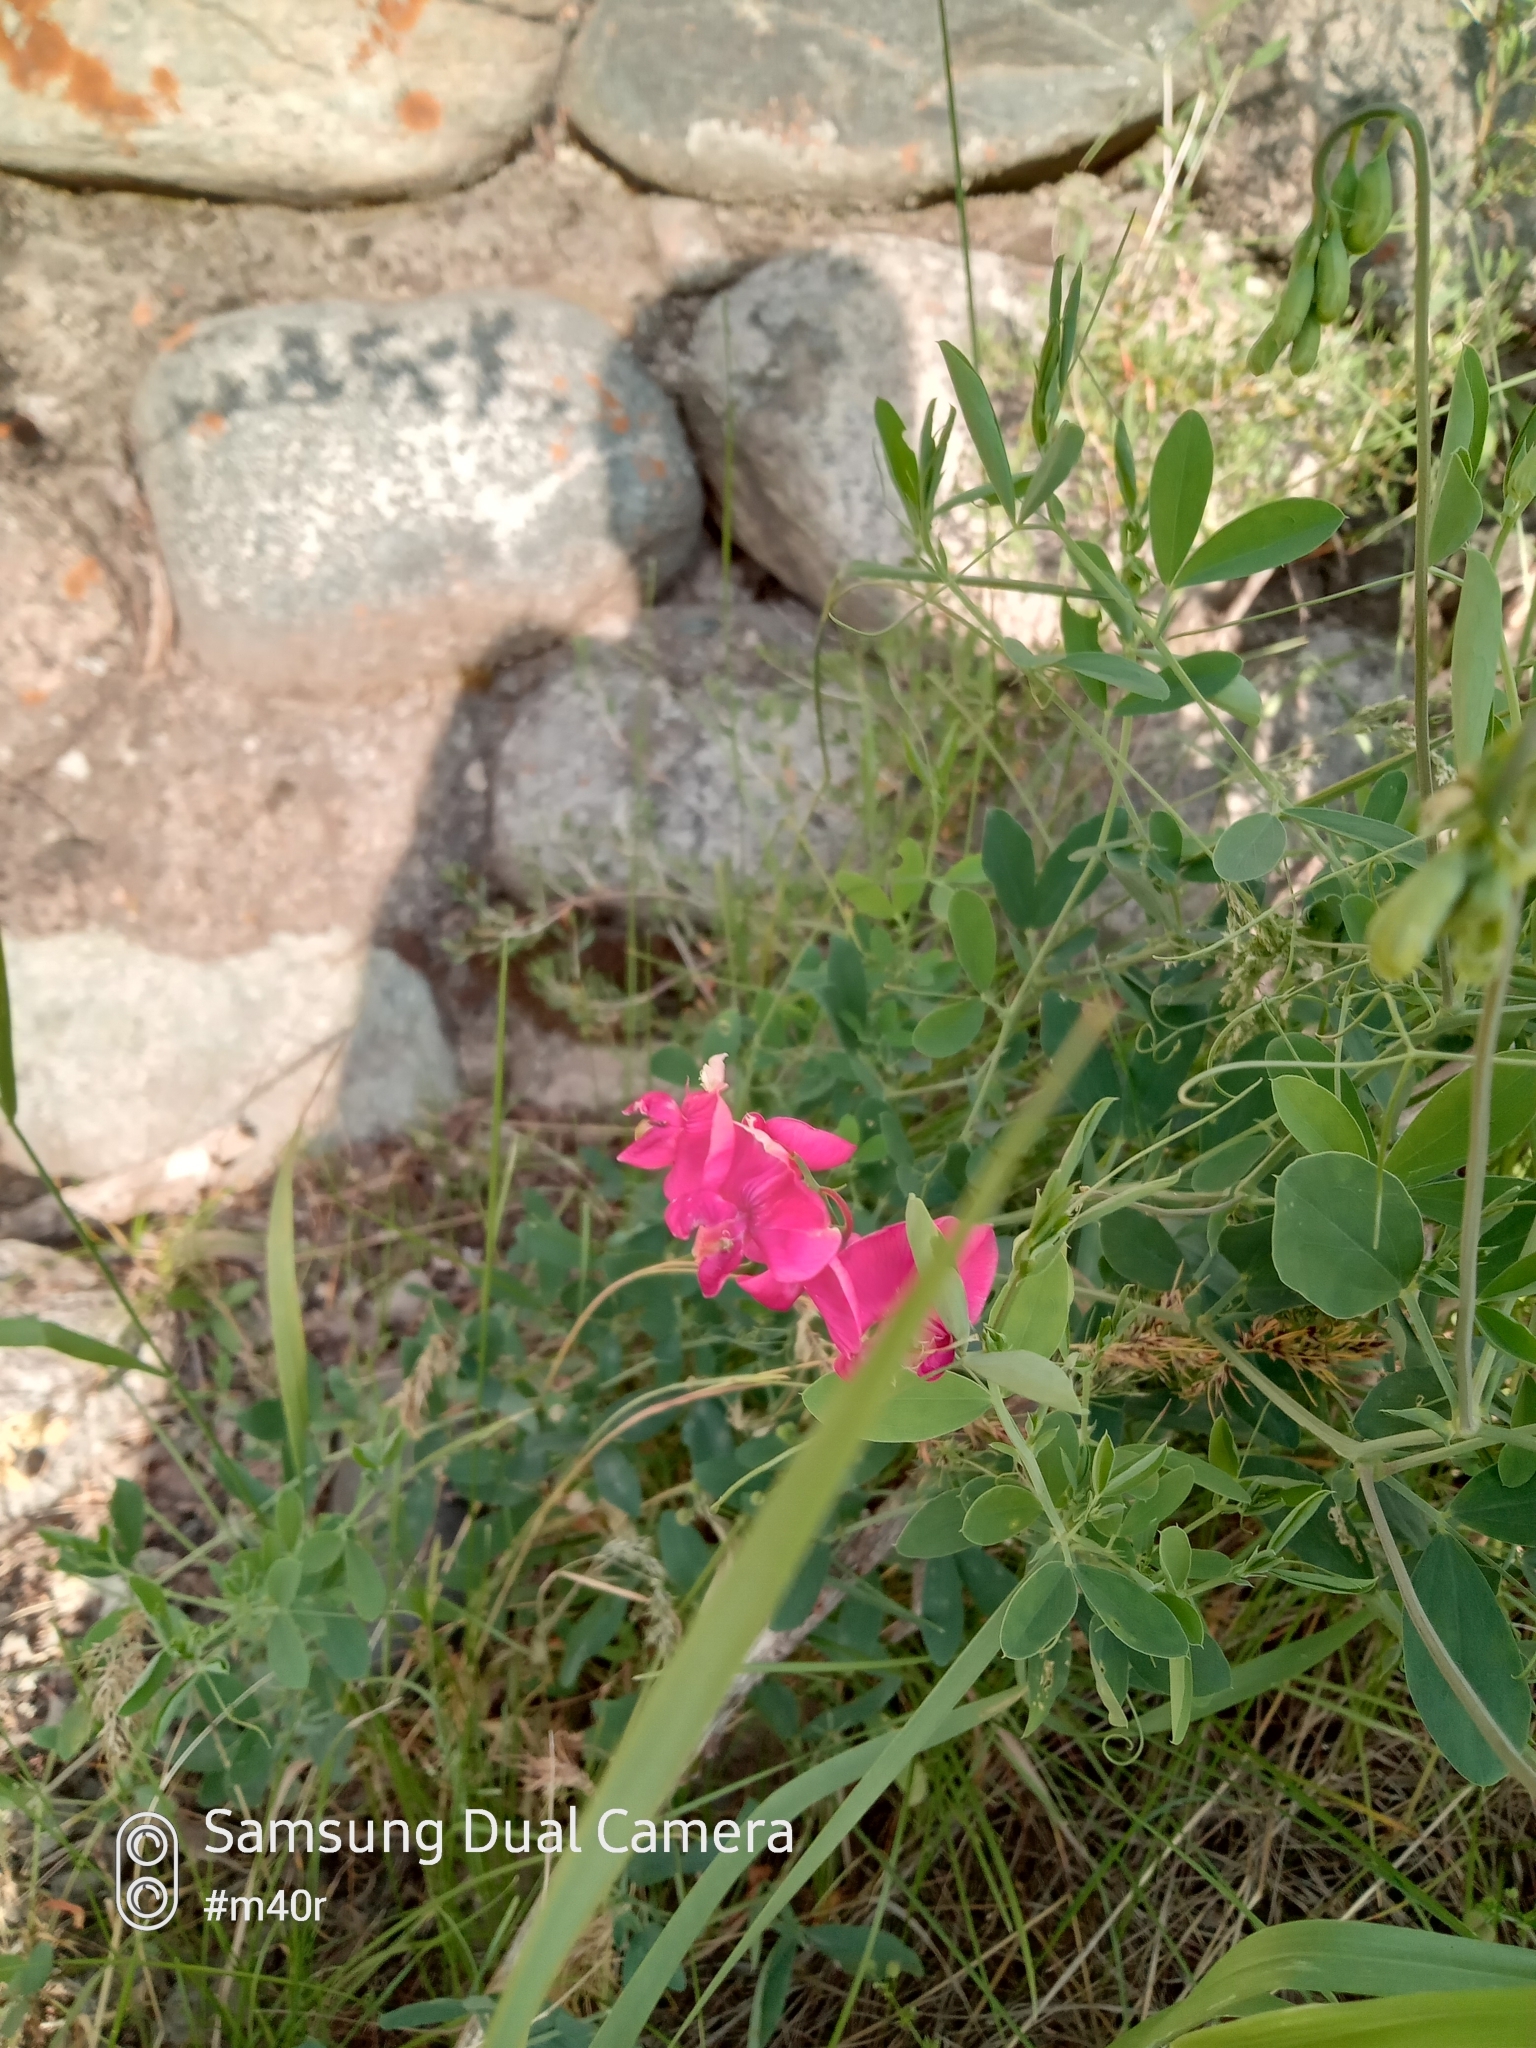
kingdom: Plantae
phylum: Tracheophyta
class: Magnoliopsida
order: Fabales
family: Fabaceae
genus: Lathyrus
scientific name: Lathyrus tuberosus
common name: Tuberous pea
